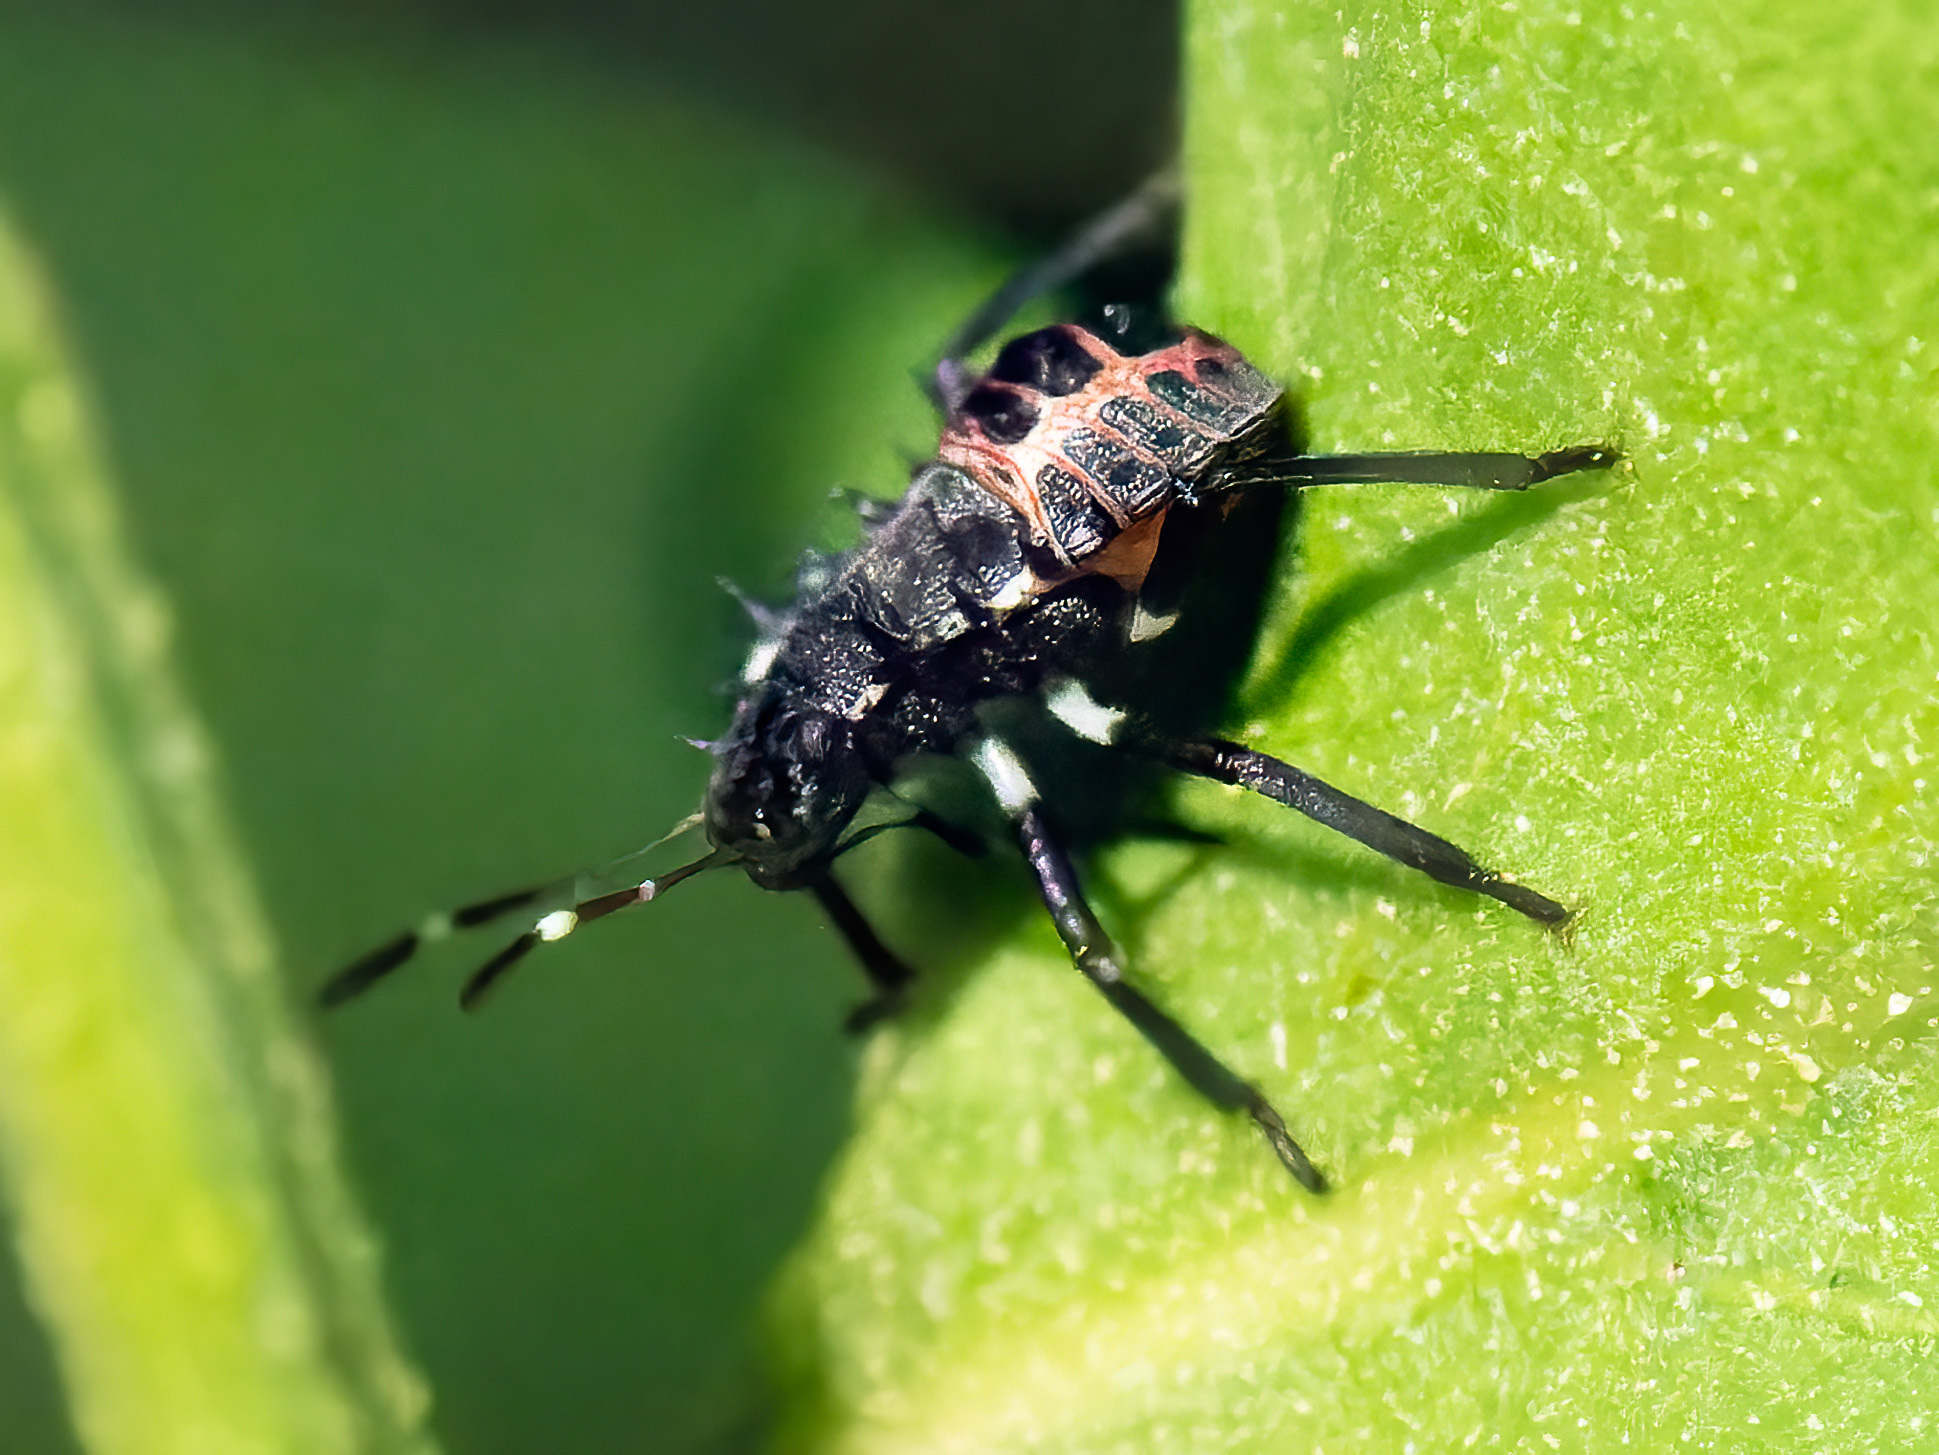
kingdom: Animalia
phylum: Arthropoda
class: Insecta
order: Hemiptera
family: Pentatomidae
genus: Halyomorpha
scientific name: Halyomorpha halys
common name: Brown marmorated stink bug
